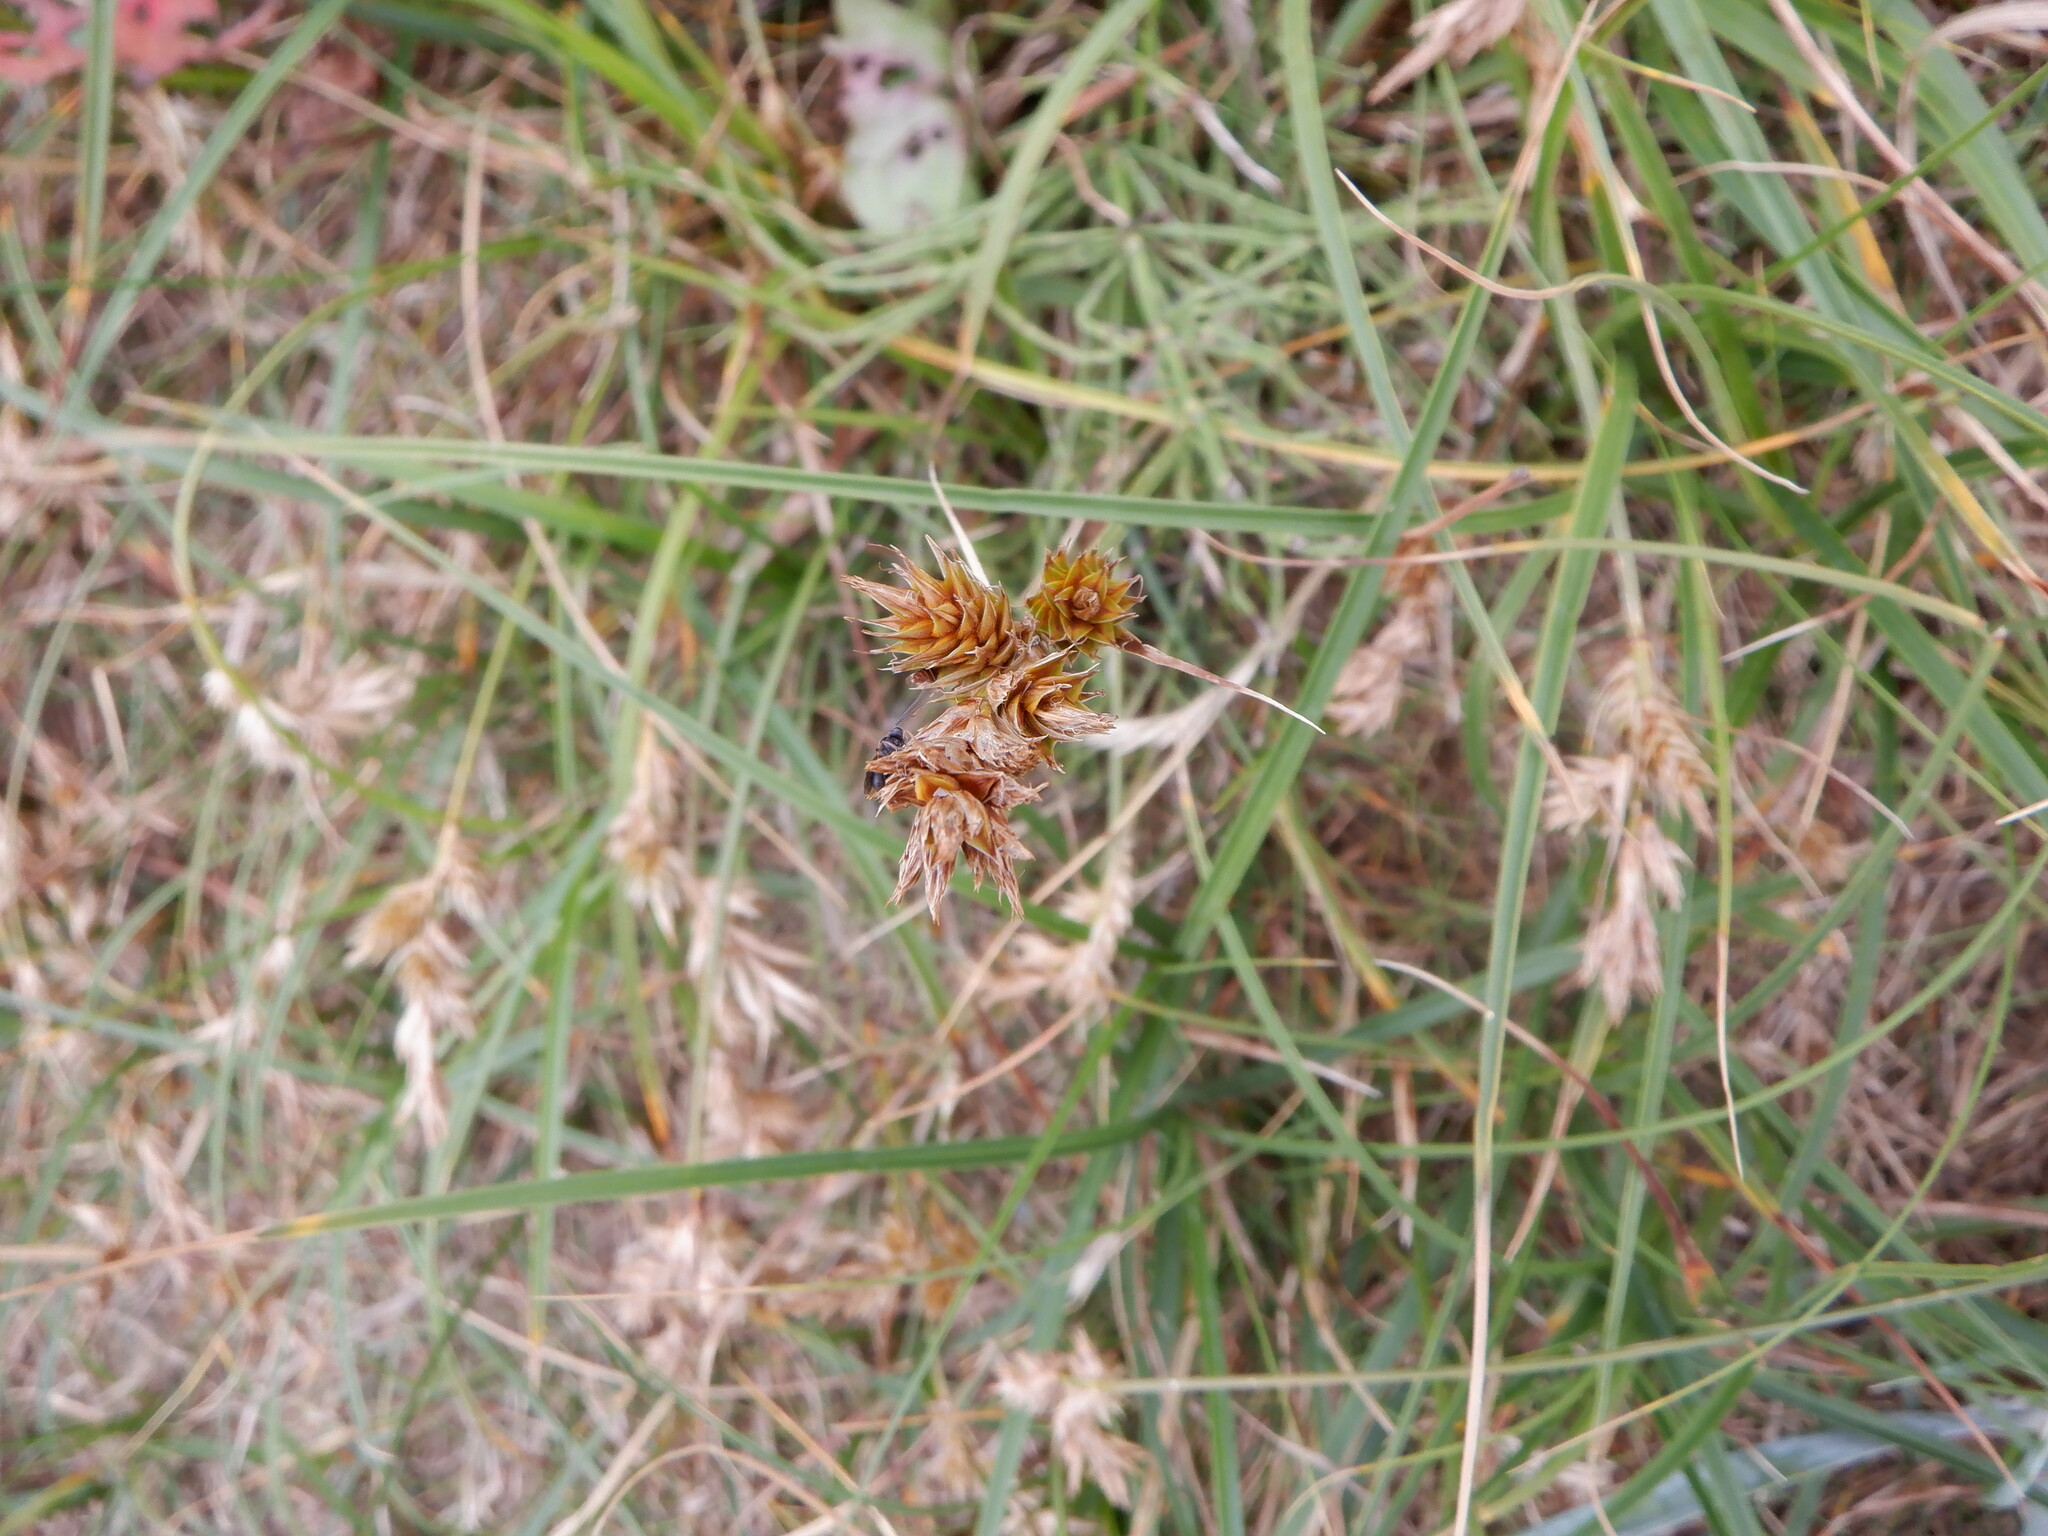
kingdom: Plantae
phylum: Tracheophyta
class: Liliopsida
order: Poales
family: Cyperaceae
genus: Carex
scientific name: Carex arenaria
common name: Sand sedge
